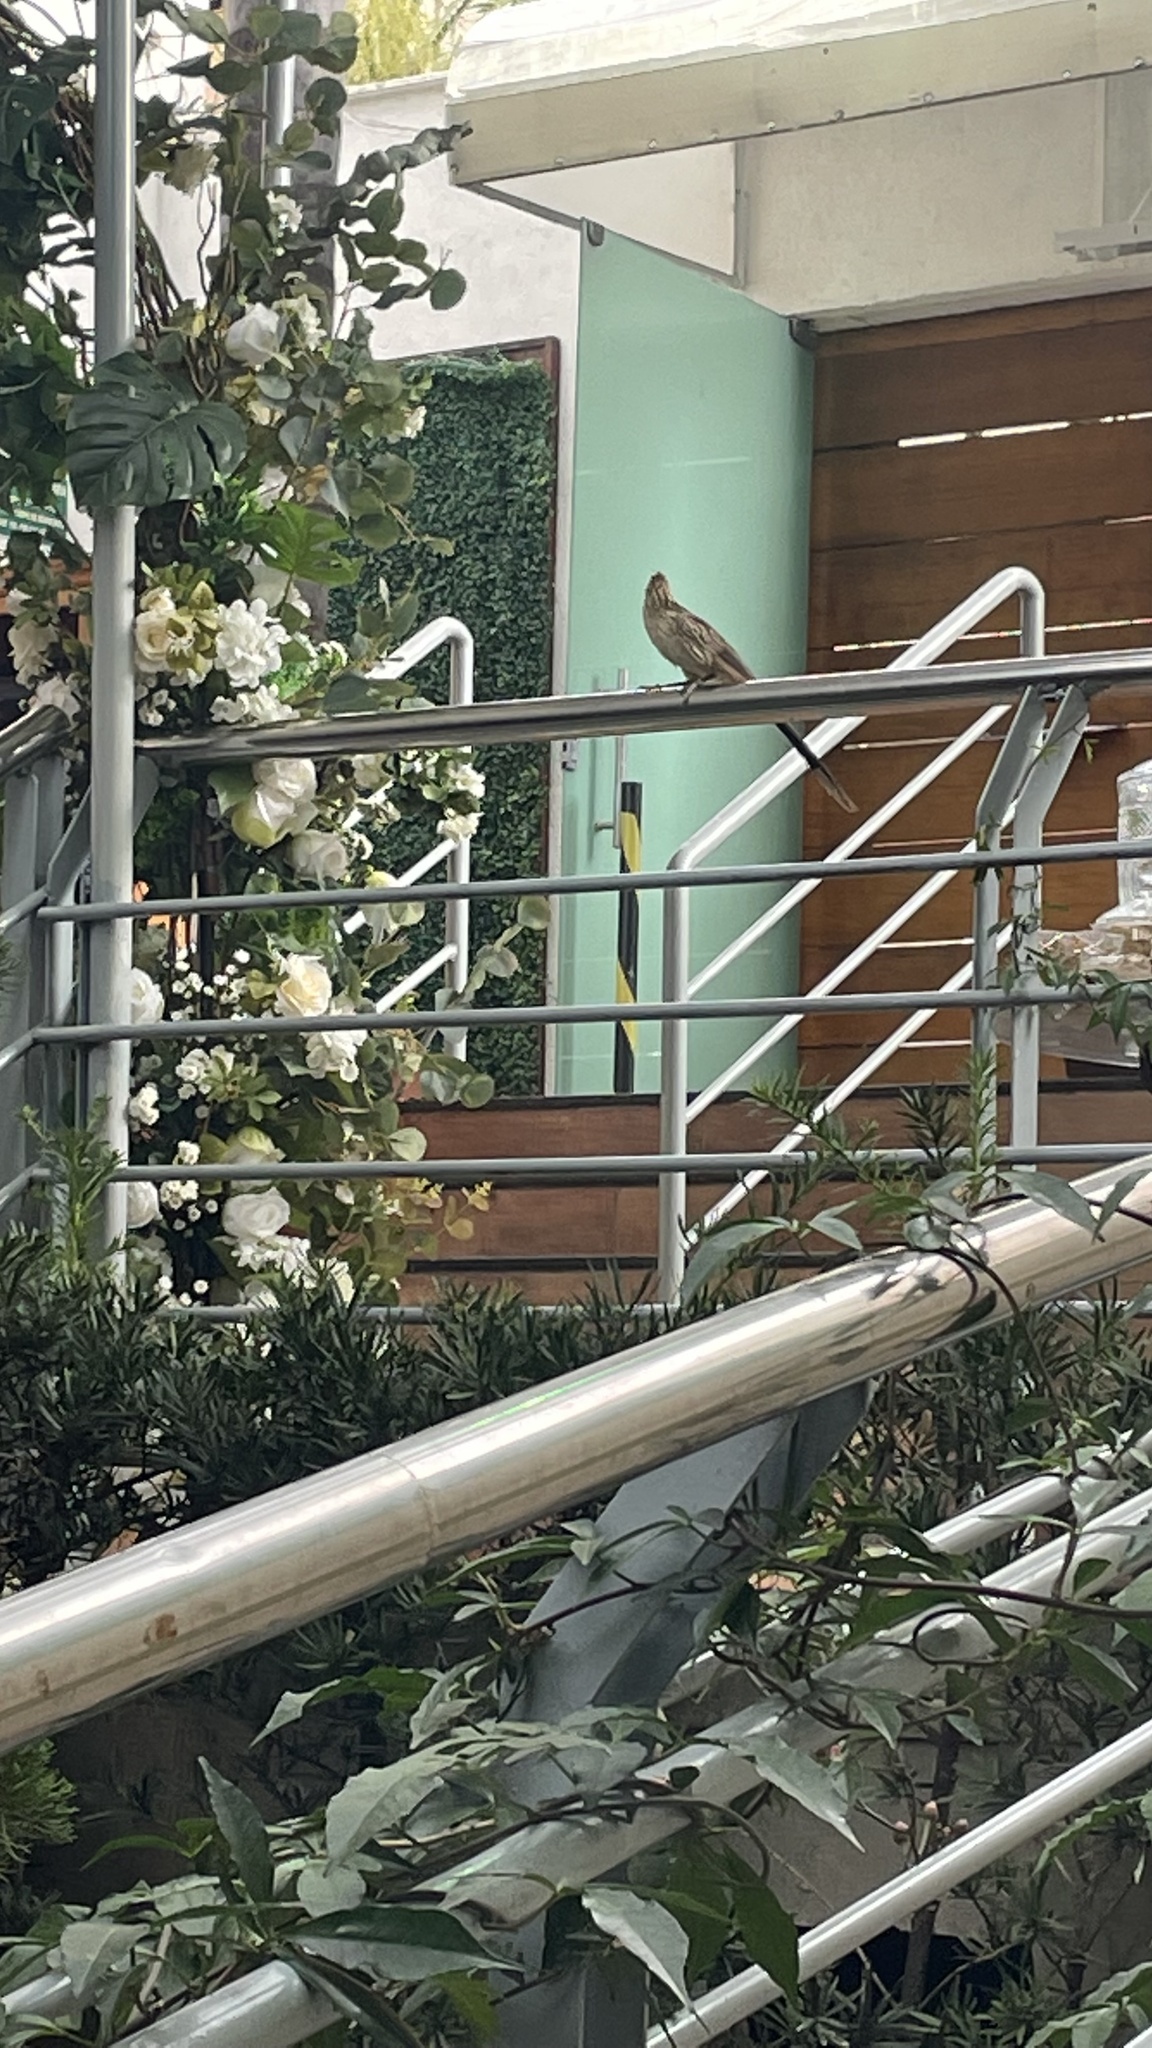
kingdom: Animalia
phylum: Chordata
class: Aves
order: Cuculiformes
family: Cuculidae
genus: Guira
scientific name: Guira guira
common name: Guira cuckoo
